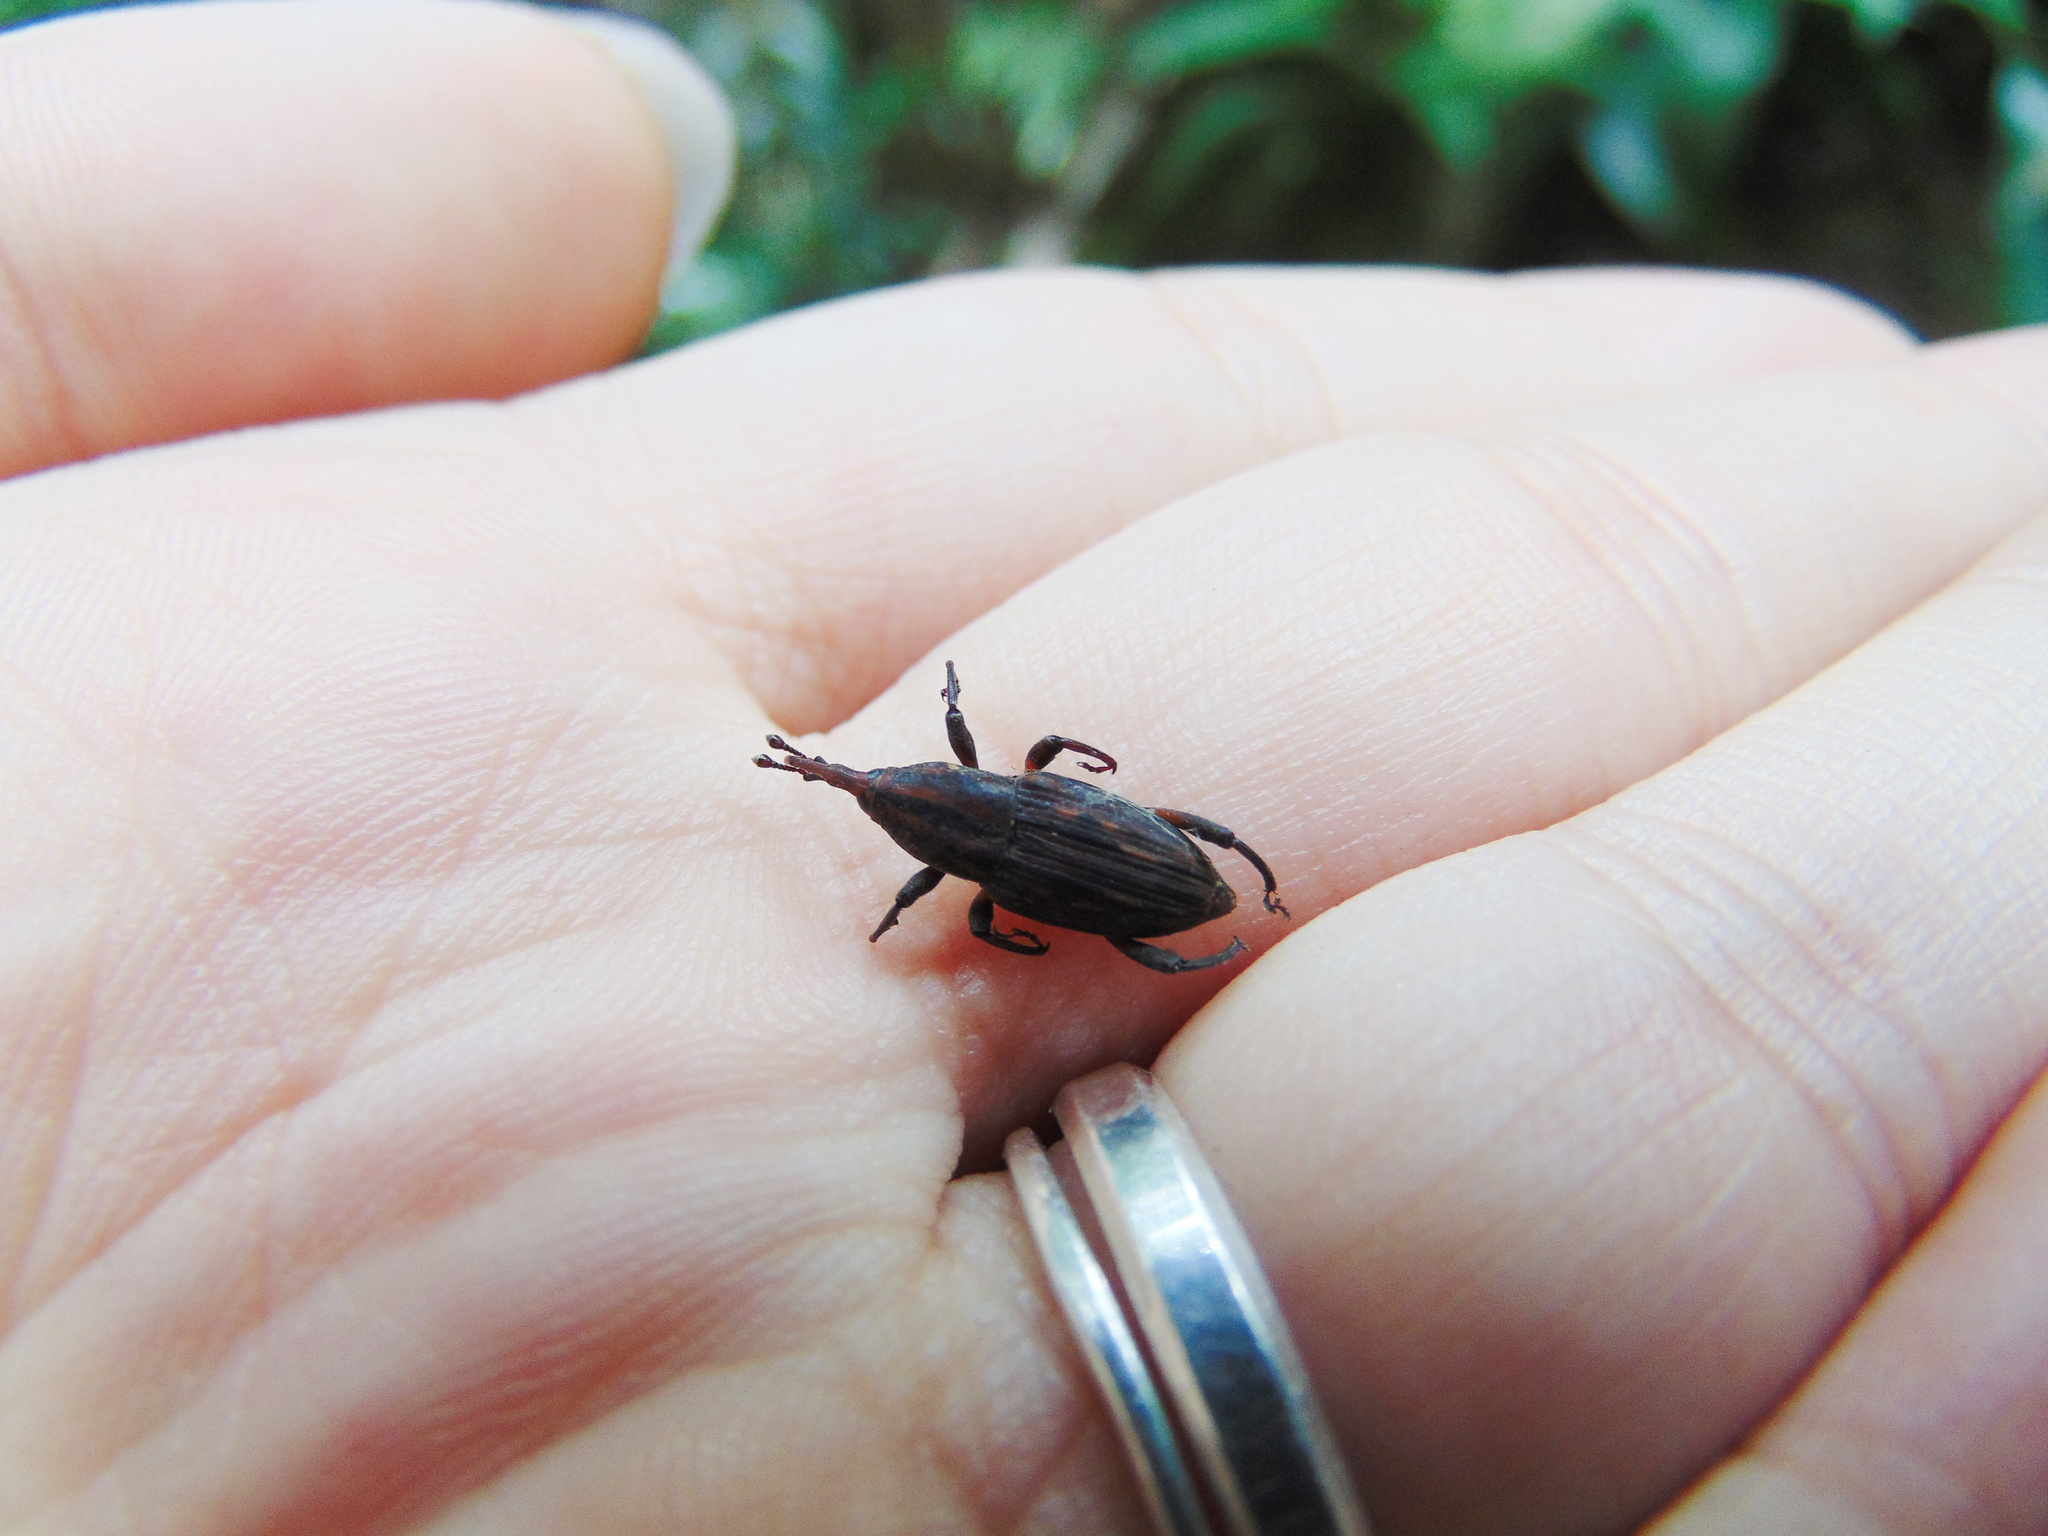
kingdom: Animalia
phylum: Arthropoda
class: Insecta
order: Coleoptera
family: Dryophthoridae
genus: Paramasius
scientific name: Paramasius distortus
